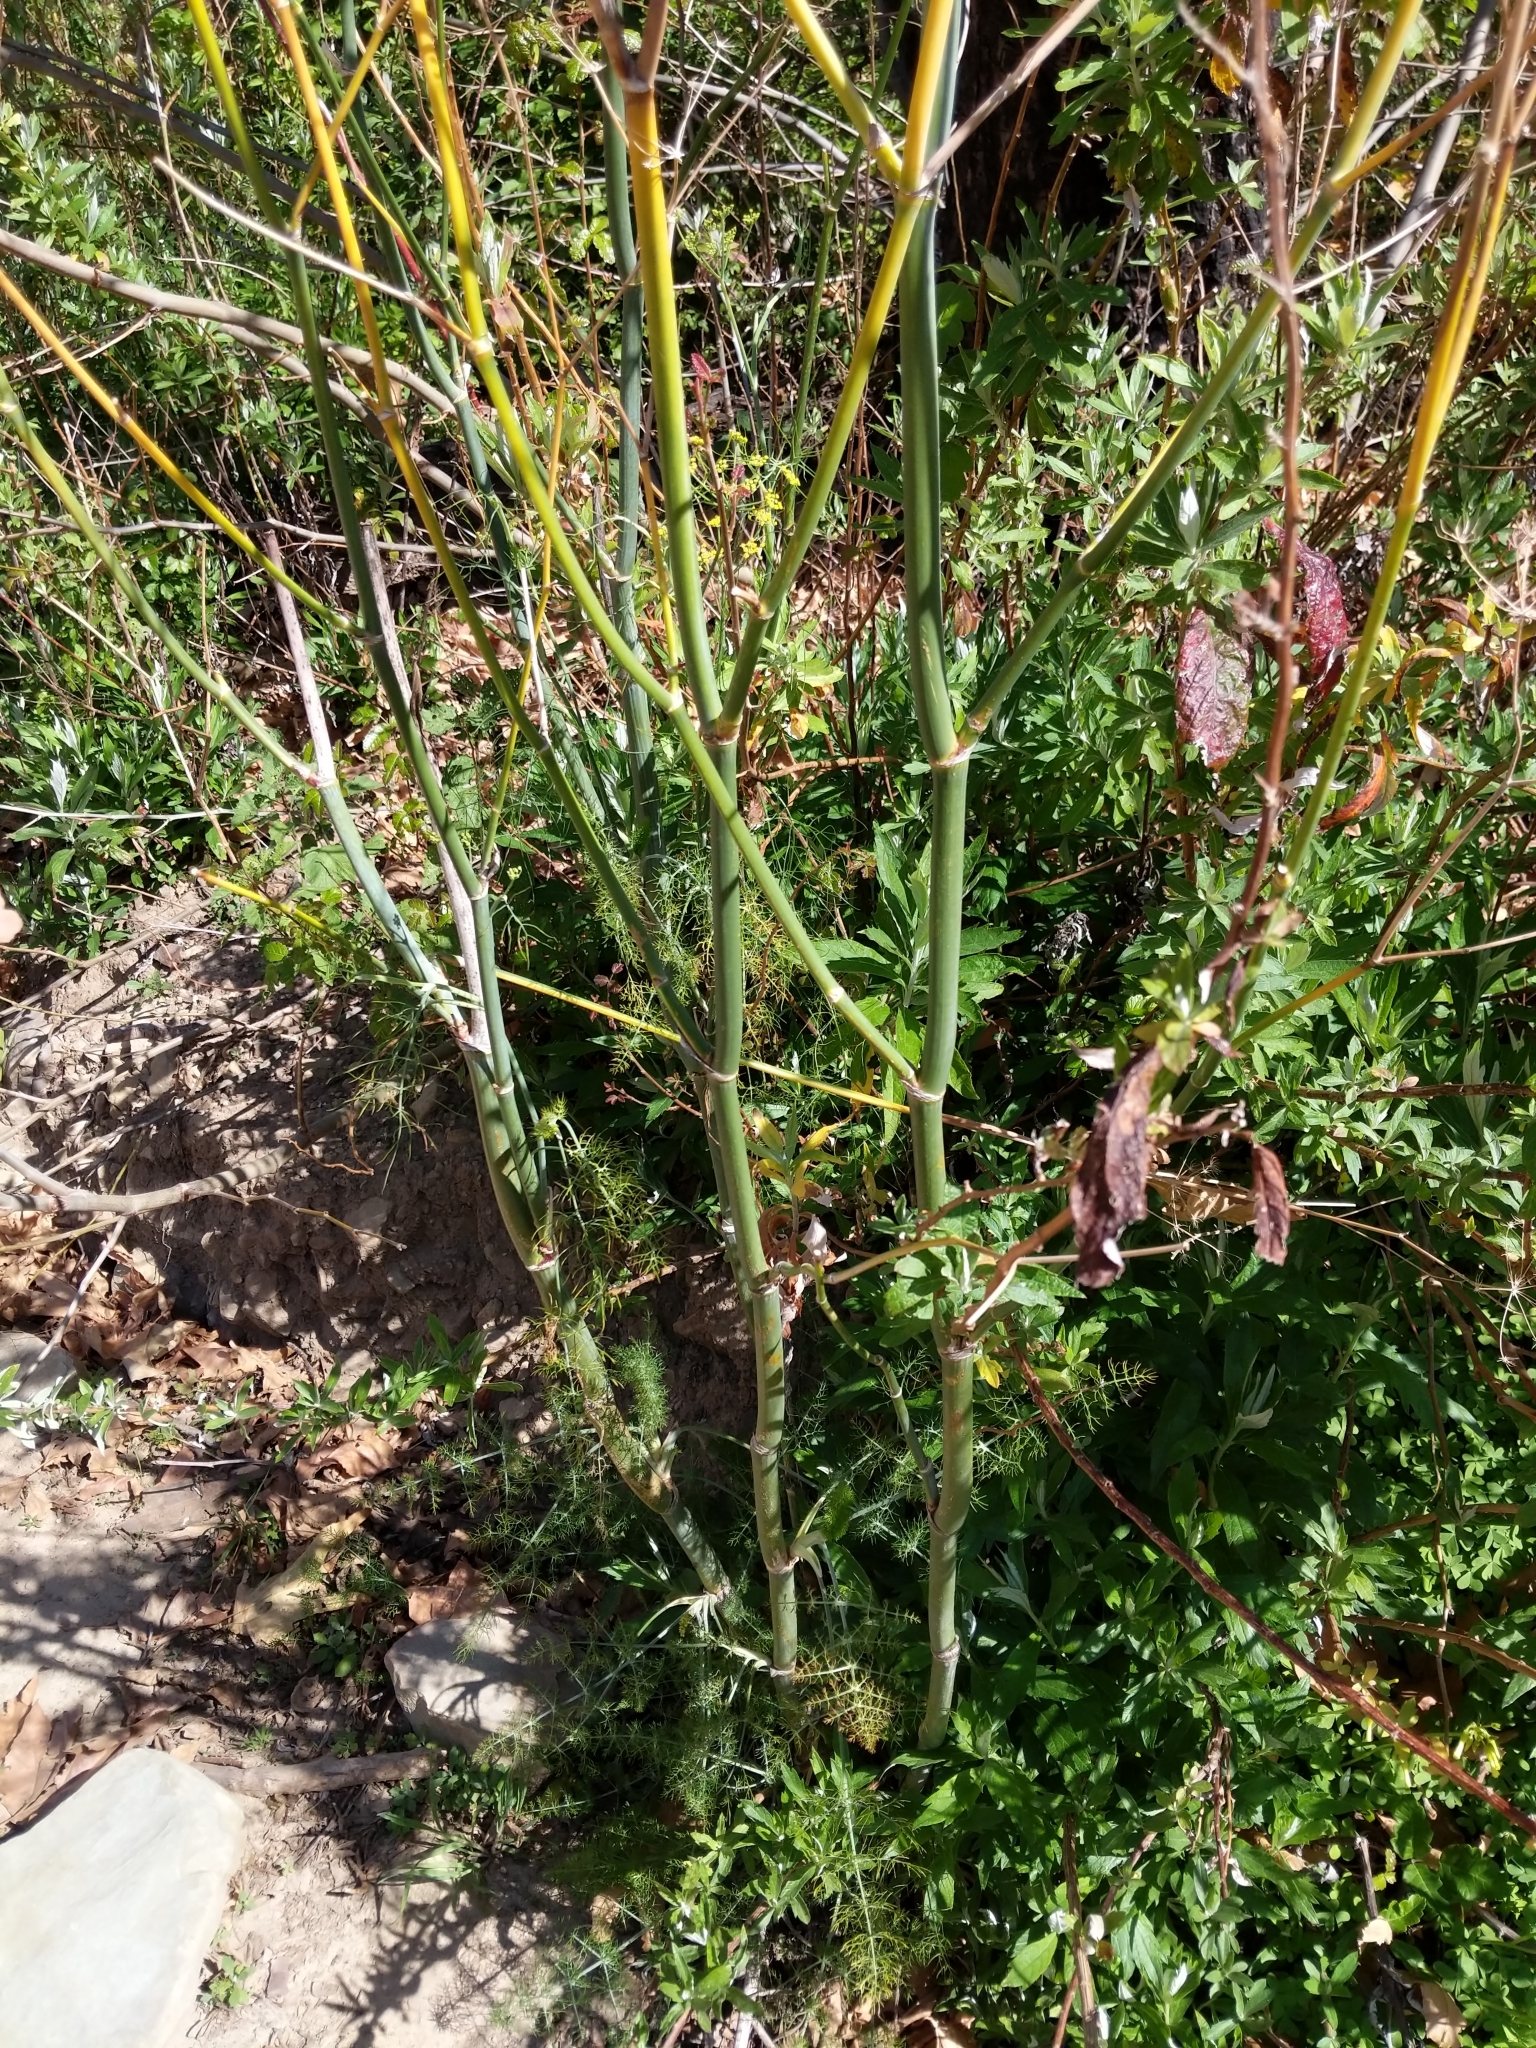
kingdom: Plantae
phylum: Tracheophyta
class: Magnoliopsida
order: Apiales
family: Apiaceae
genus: Foeniculum
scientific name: Foeniculum vulgare
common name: Fennel
